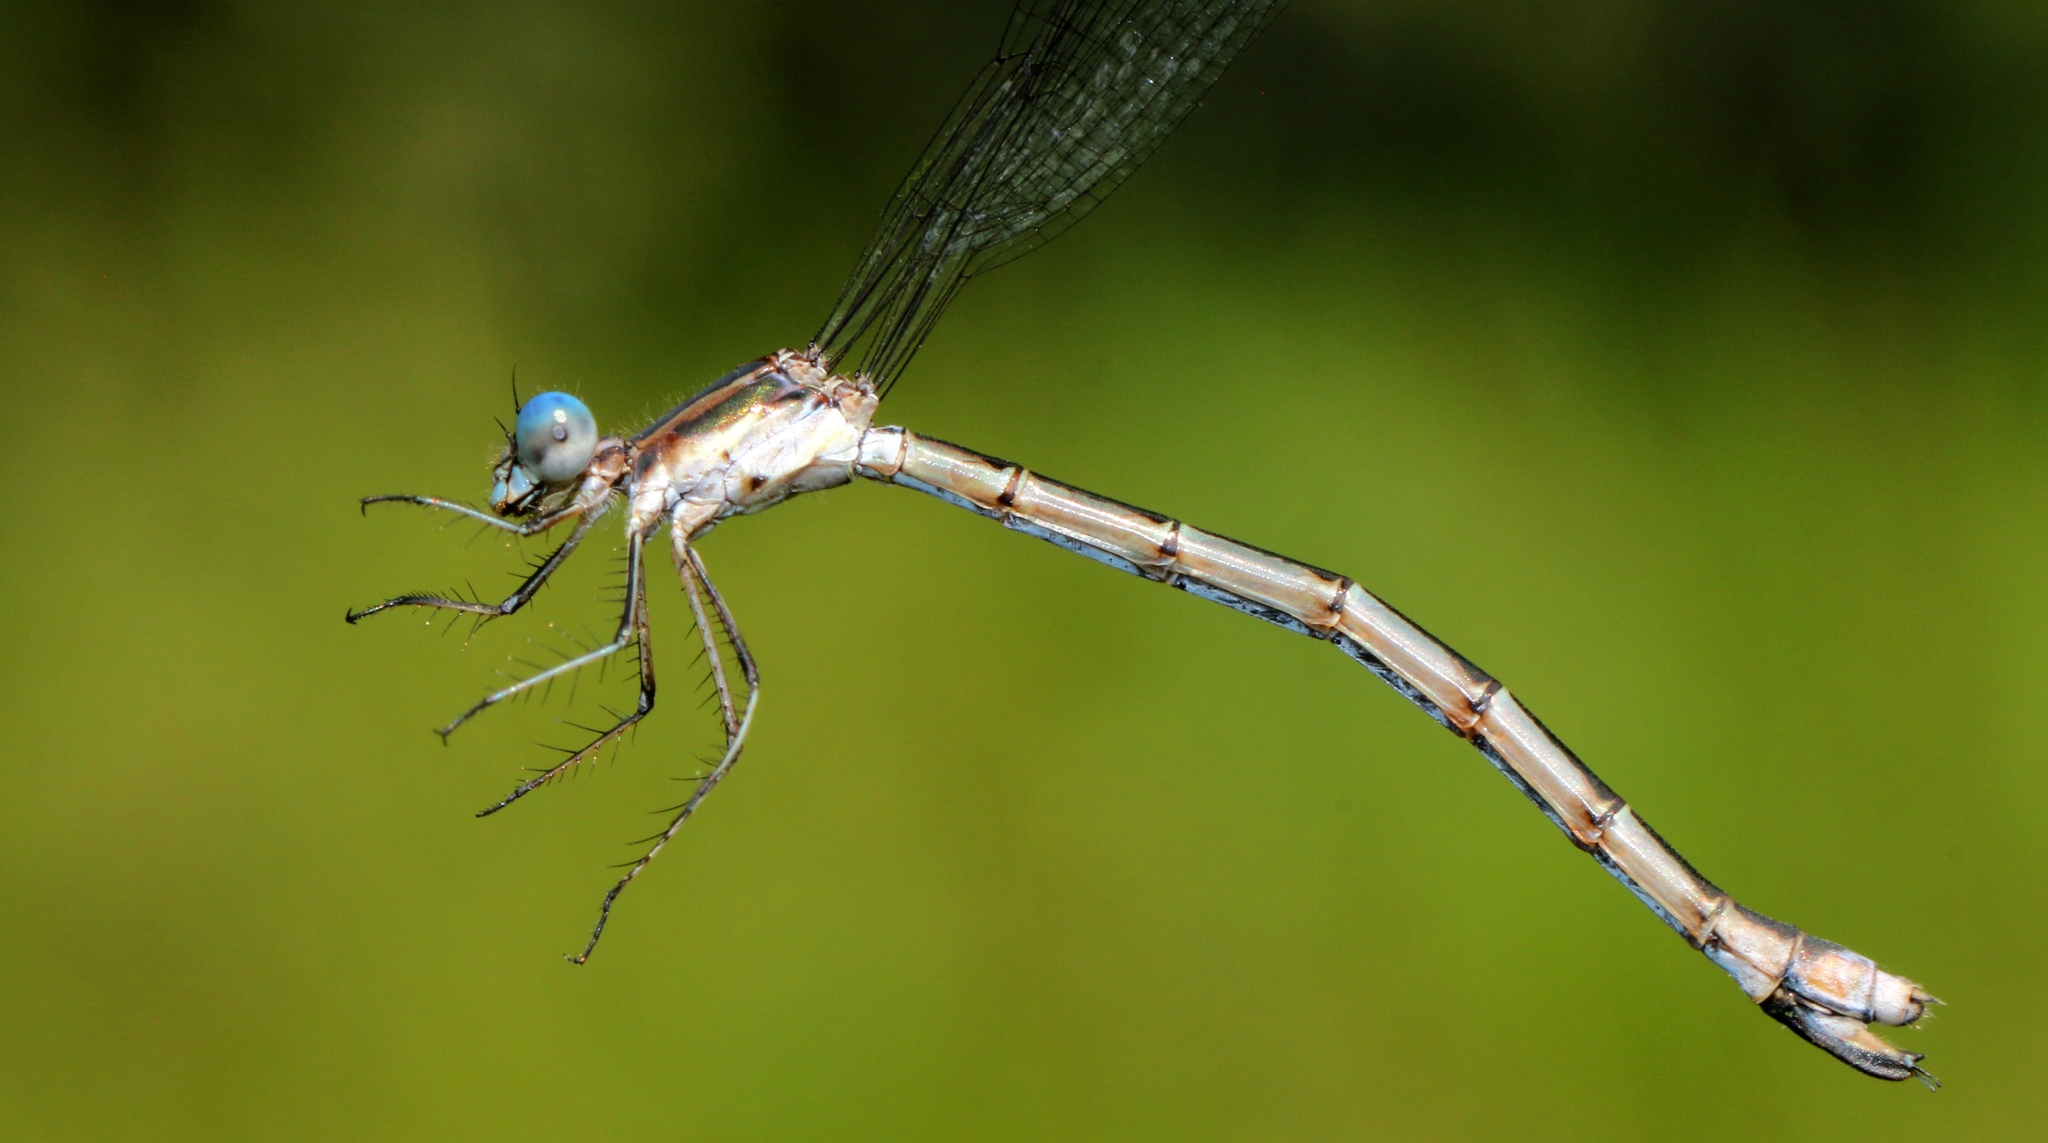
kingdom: Animalia
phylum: Arthropoda
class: Insecta
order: Odonata
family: Lestidae
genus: Lestes
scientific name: Lestes forcipatus
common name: Sweetflag spreadwing
